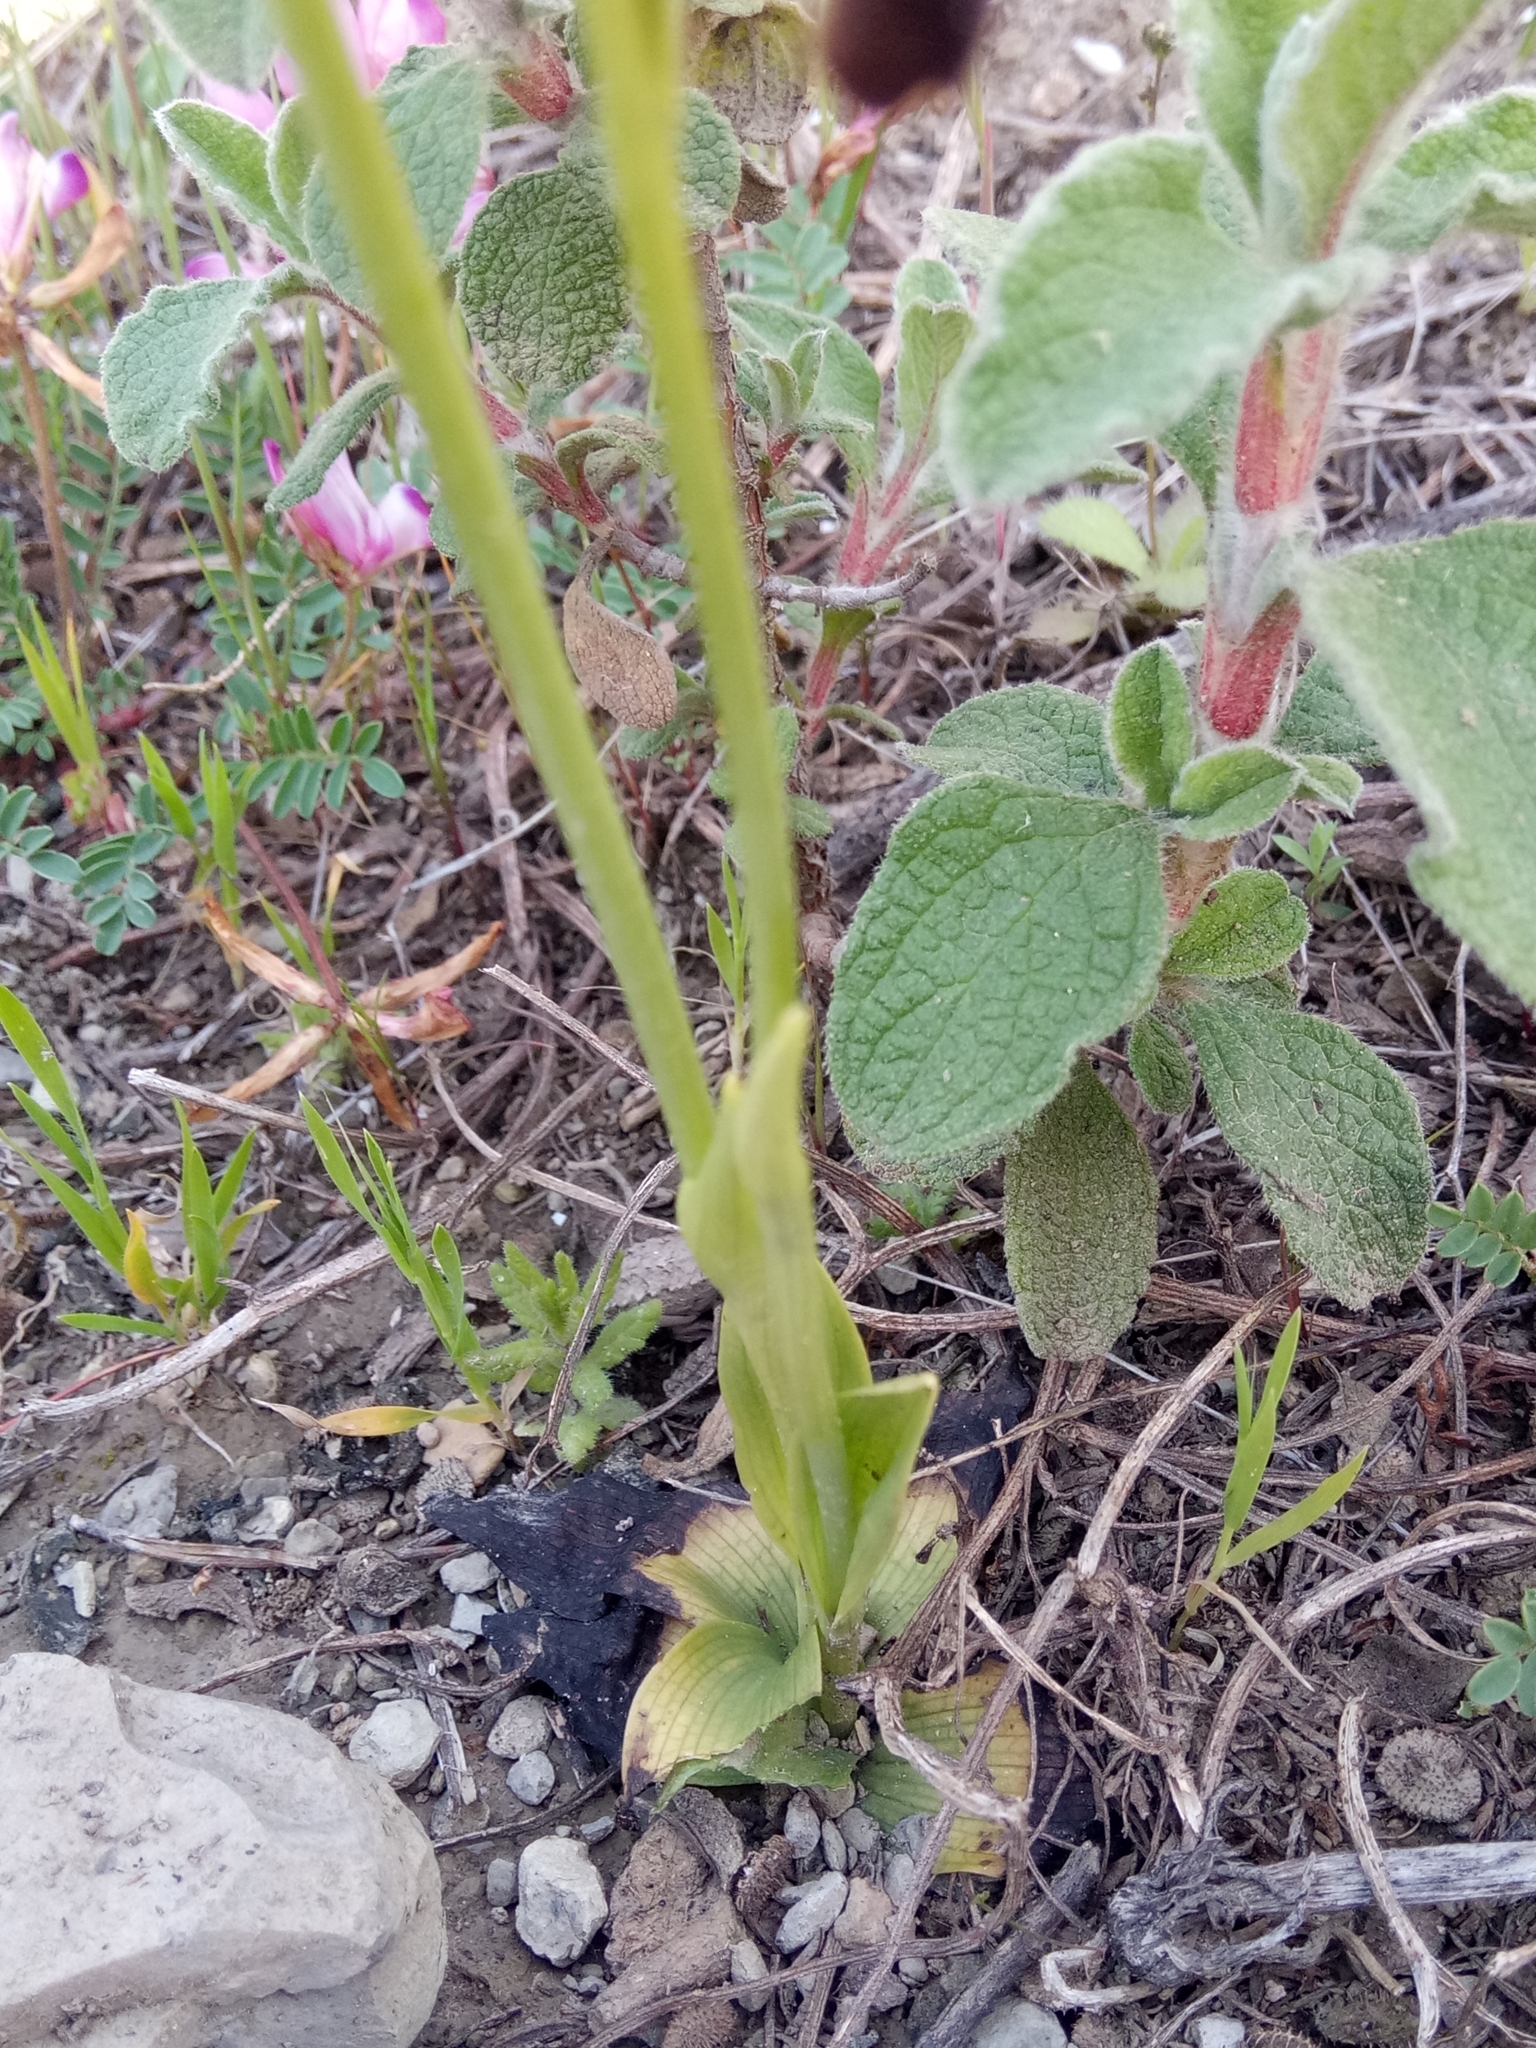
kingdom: Plantae
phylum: Tracheophyta
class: Liliopsida
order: Asparagales
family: Orchidaceae
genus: Ophrys
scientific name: Ophrys fusca
